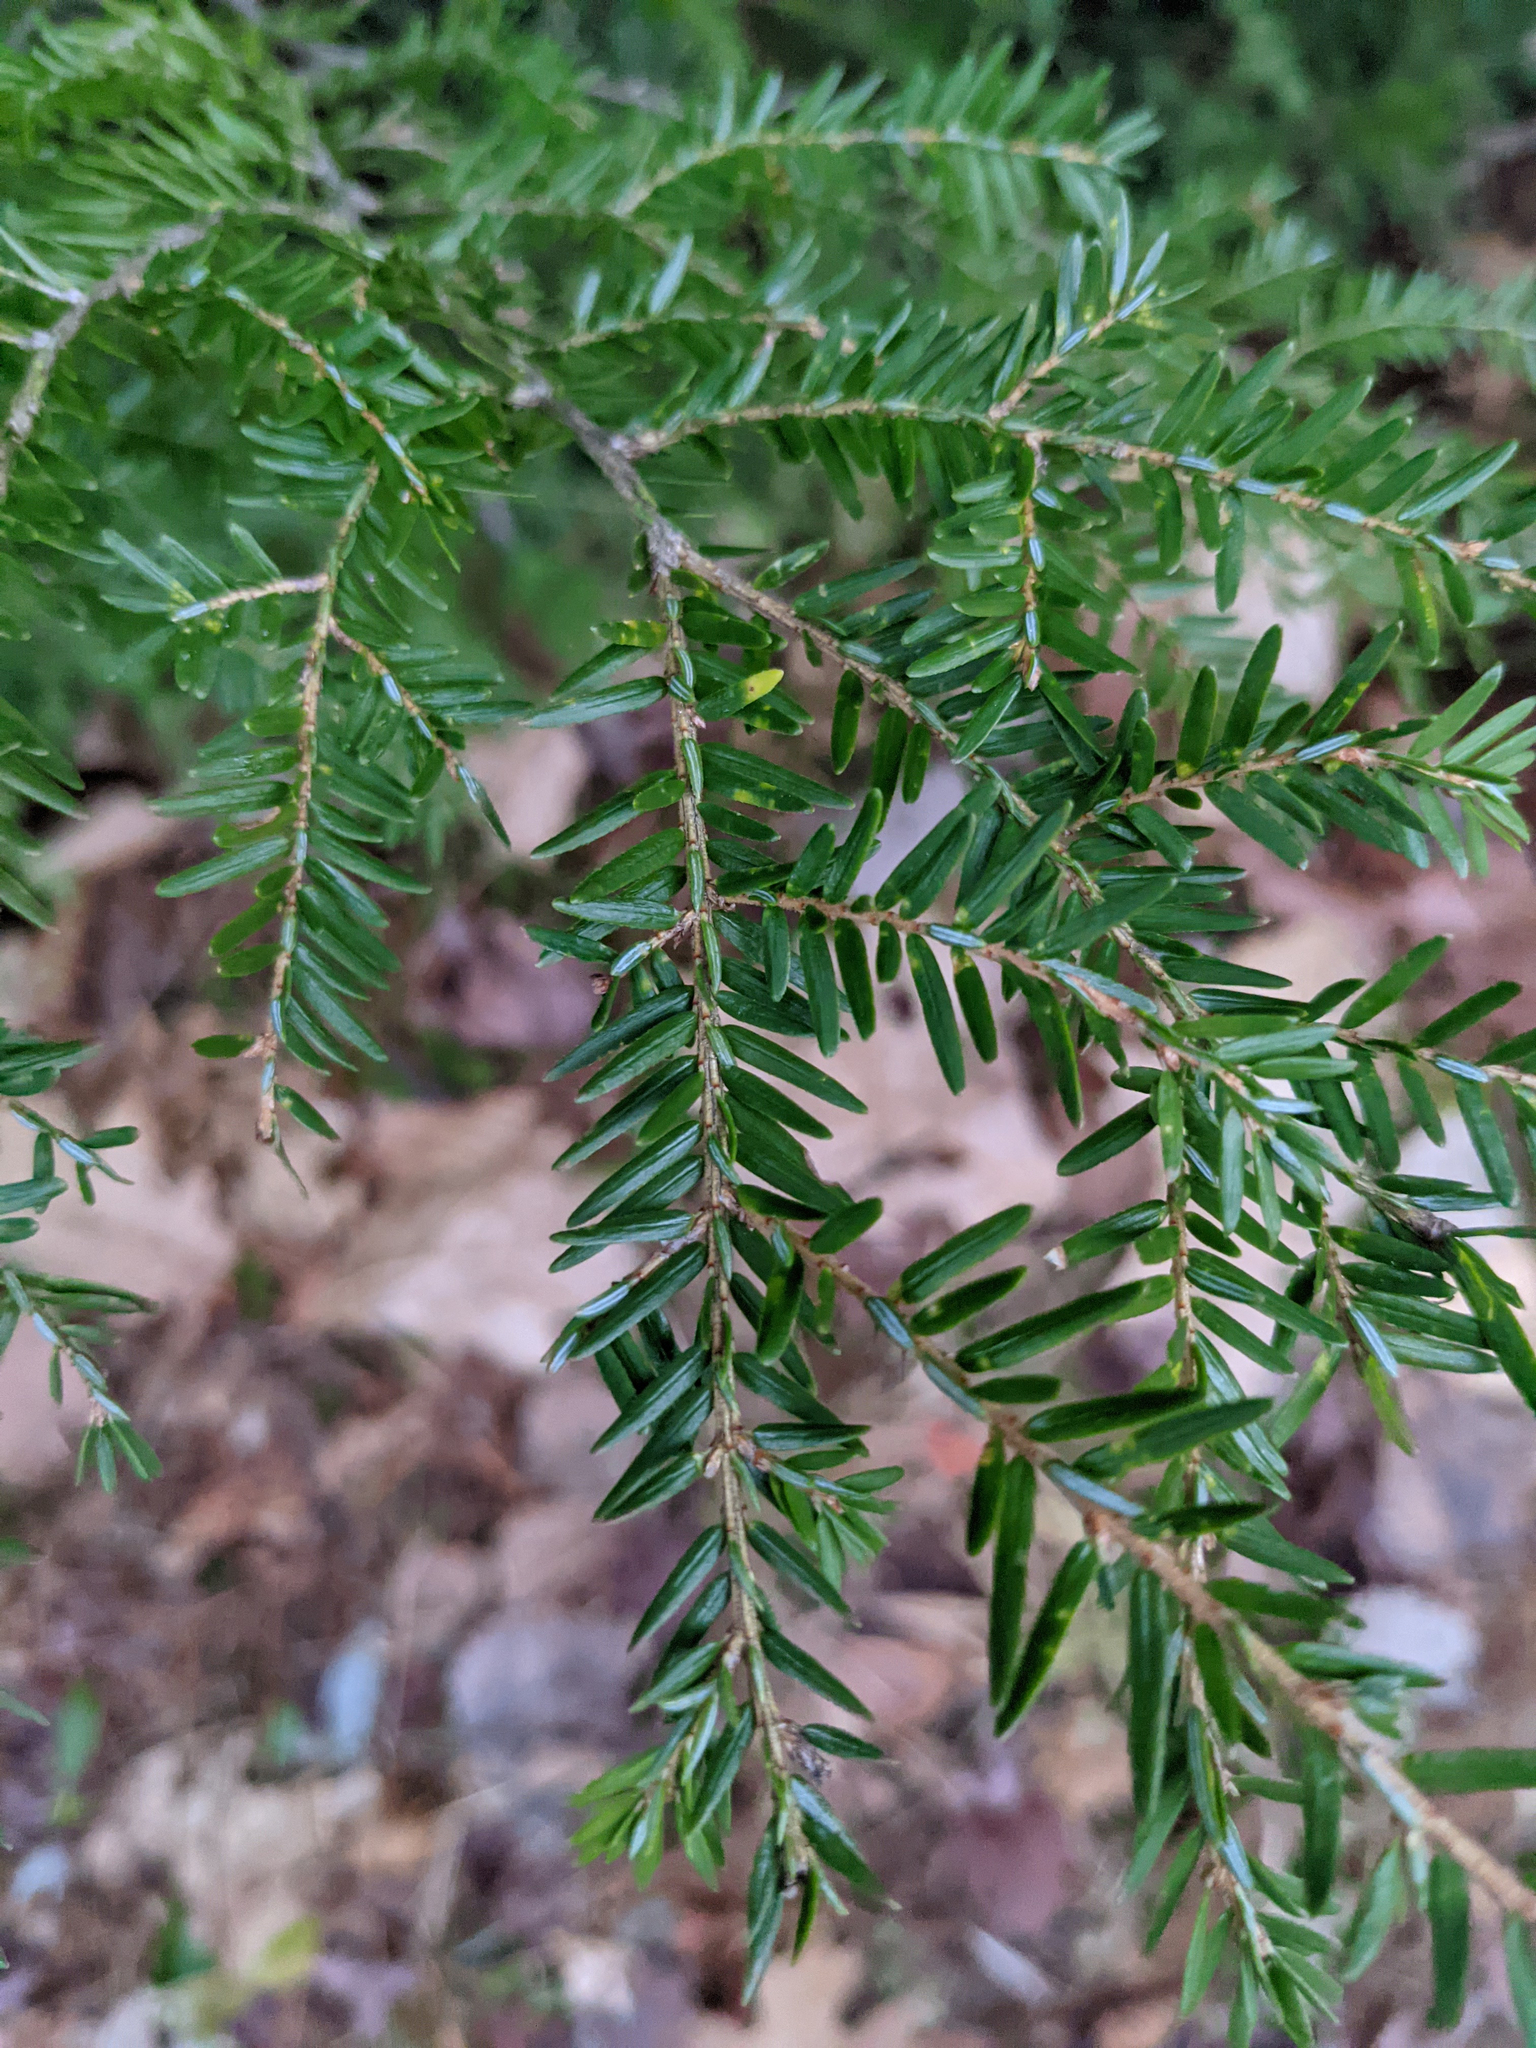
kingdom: Plantae
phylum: Tracheophyta
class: Pinopsida
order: Pinales
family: Pinaceae
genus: Tsuga
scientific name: Tsuga canadensis
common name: Eastern hemlock
